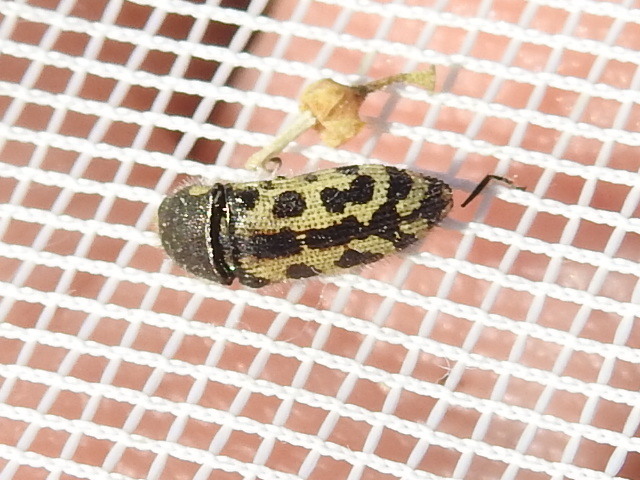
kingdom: Animalia
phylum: Arthropoda
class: Insecta
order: Coleoptera
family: Buprestidae
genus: Acmaeodera
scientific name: Acmaeodera mixta
